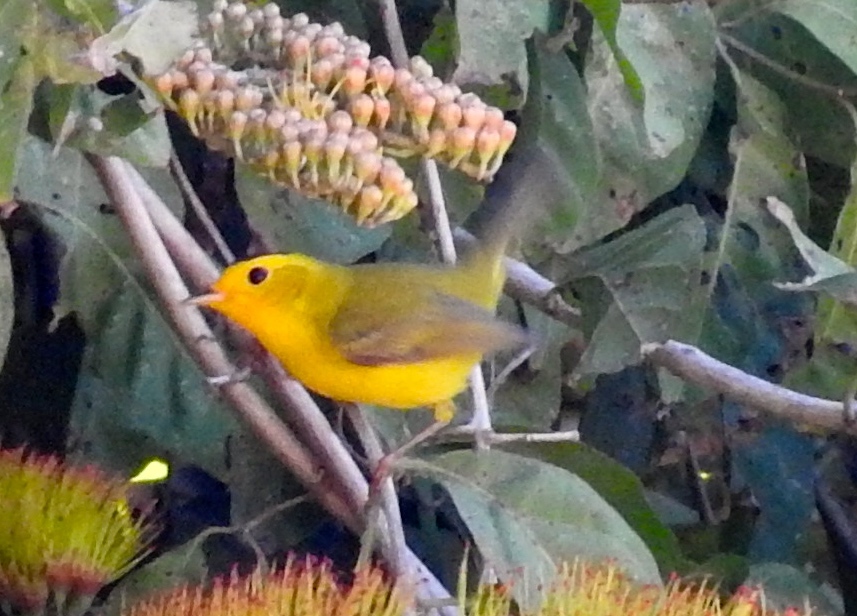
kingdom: Animalia
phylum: Chordata
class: Aves
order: Passeriformes
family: Parulidae
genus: Cardellina
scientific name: Cardellina pusilla
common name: Wilson's warbler
